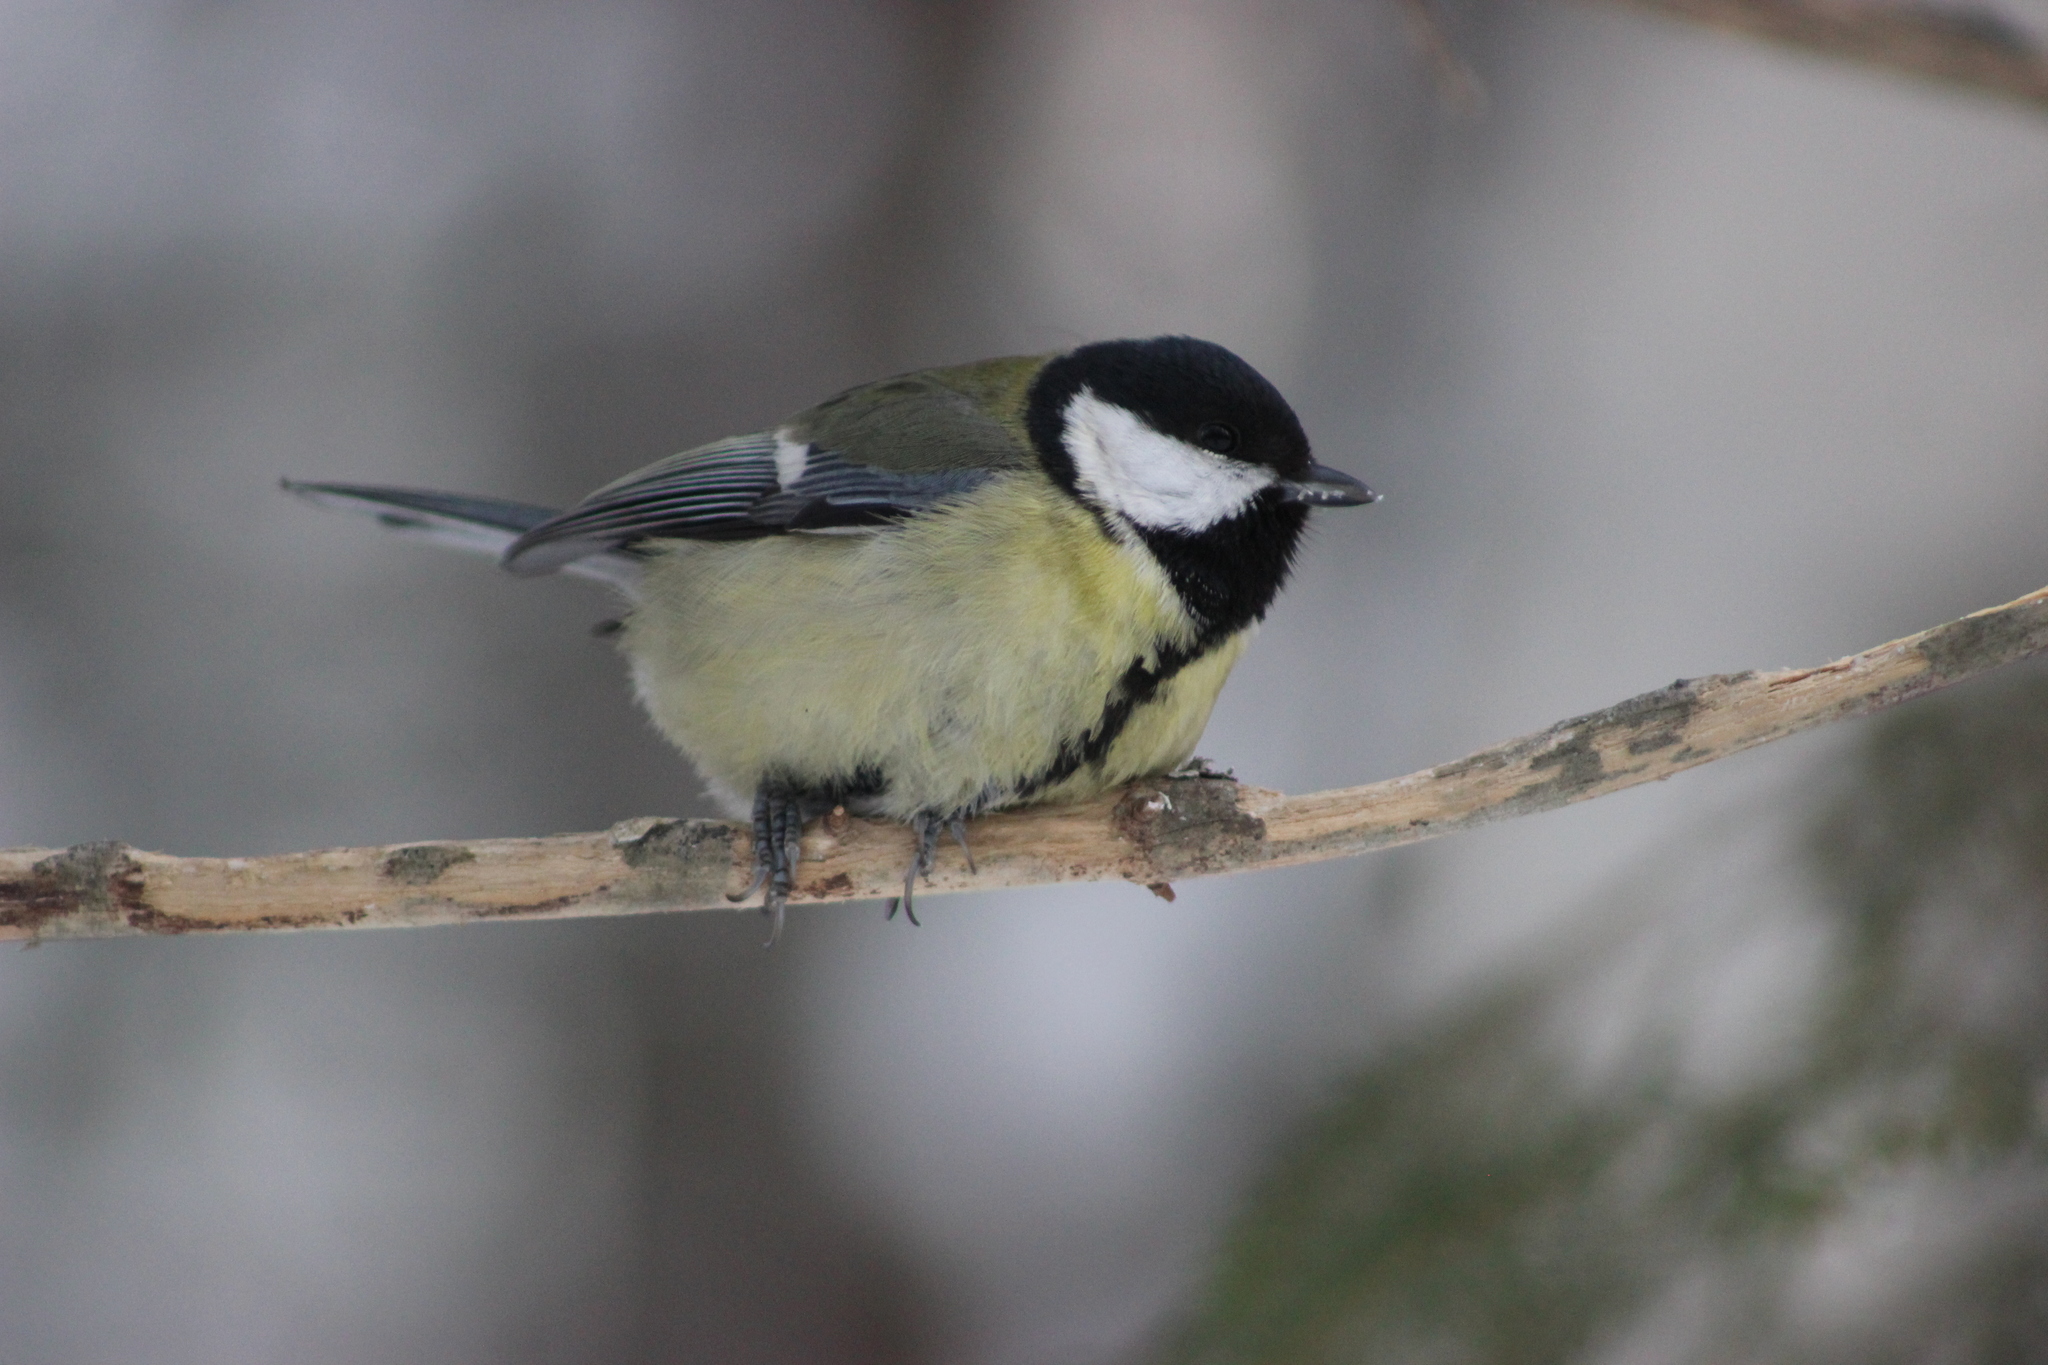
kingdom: Animalia
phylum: Chordata
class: Aves
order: Passeriformes
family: Paridae
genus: Parus
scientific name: Parus major
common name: Great tit
